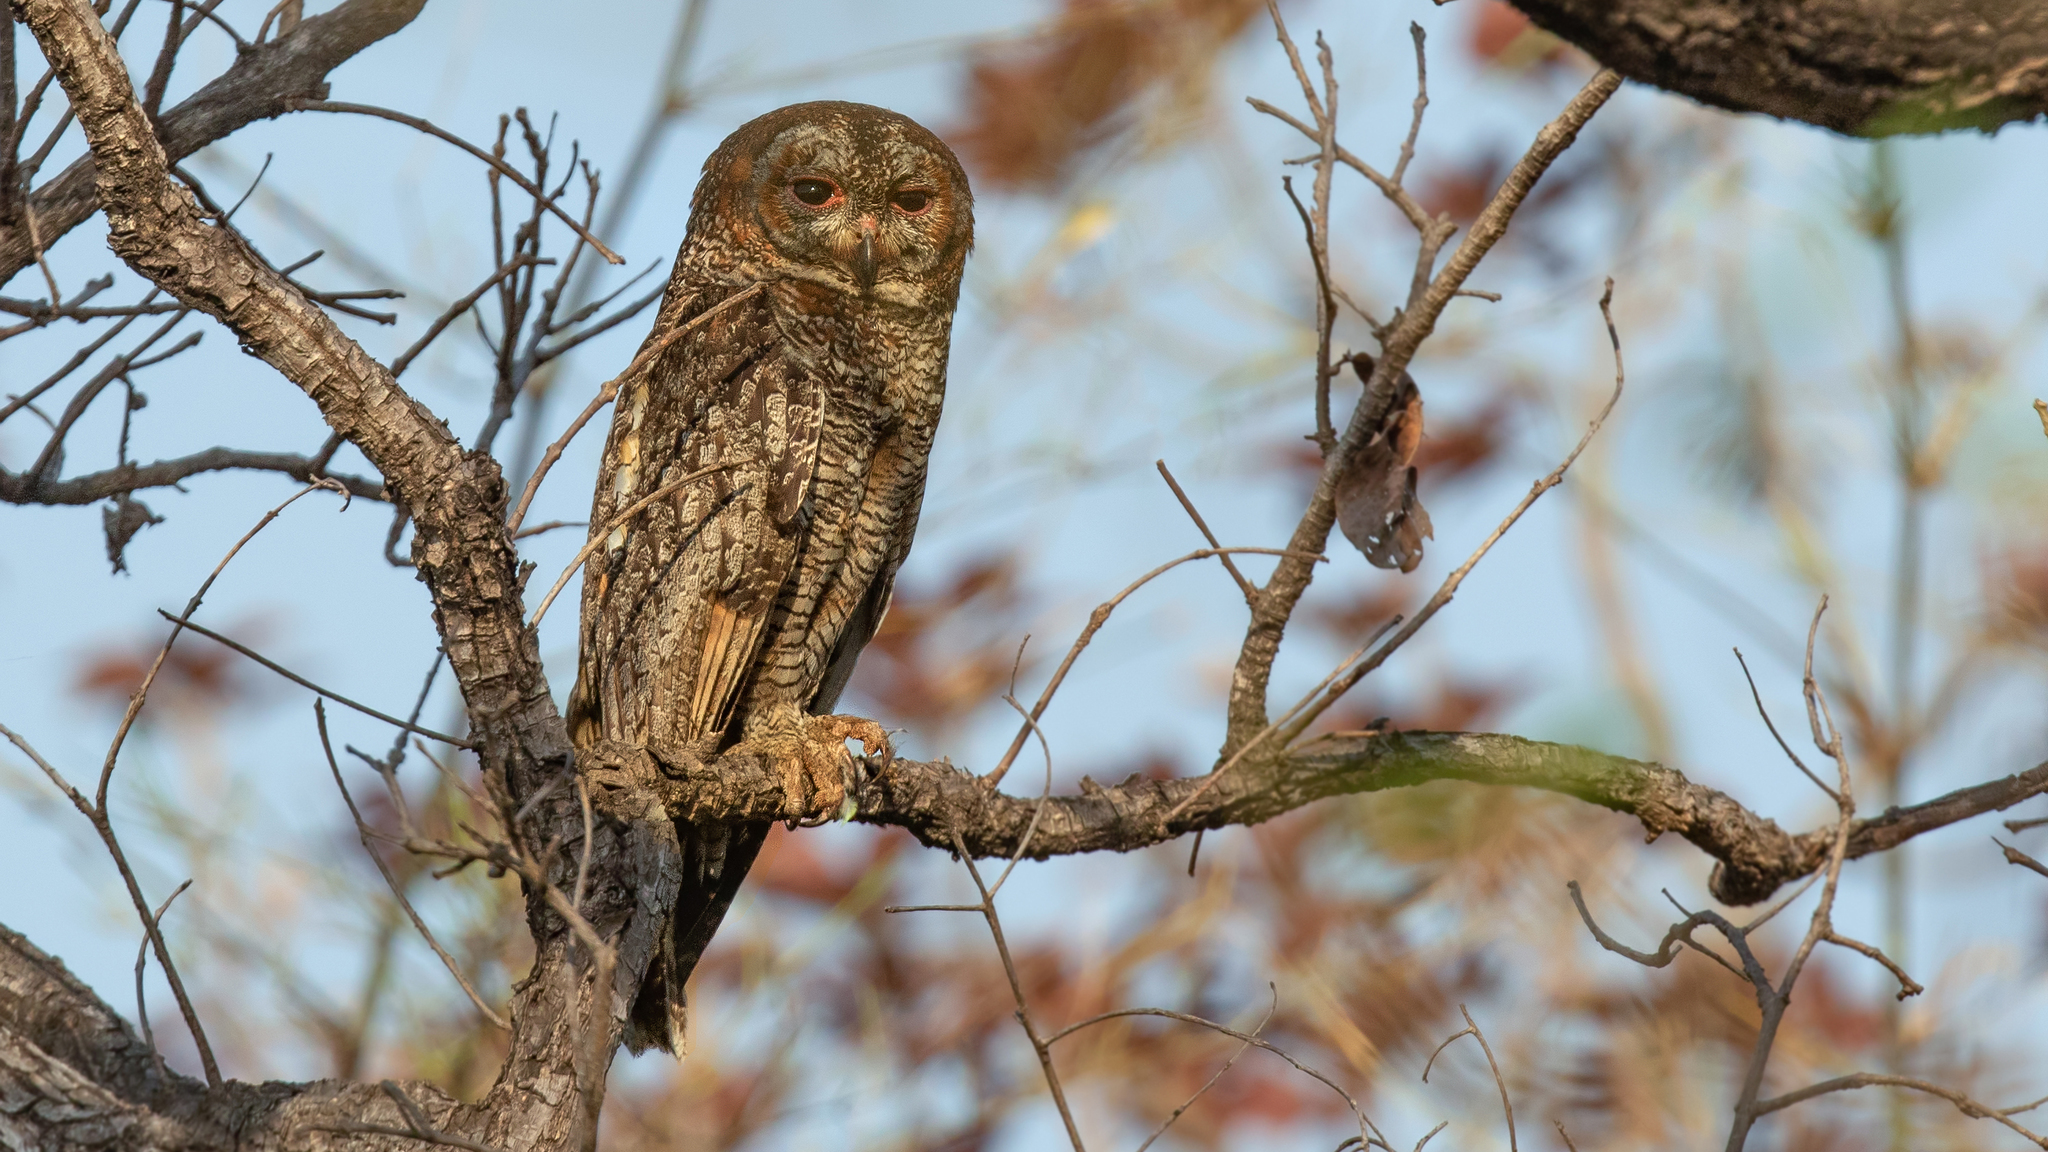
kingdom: Animalia
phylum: Chordata
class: Aves
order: Strigiformes
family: Strigidae
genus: Strix
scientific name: Strix ocellata
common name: Mottled wood owl
